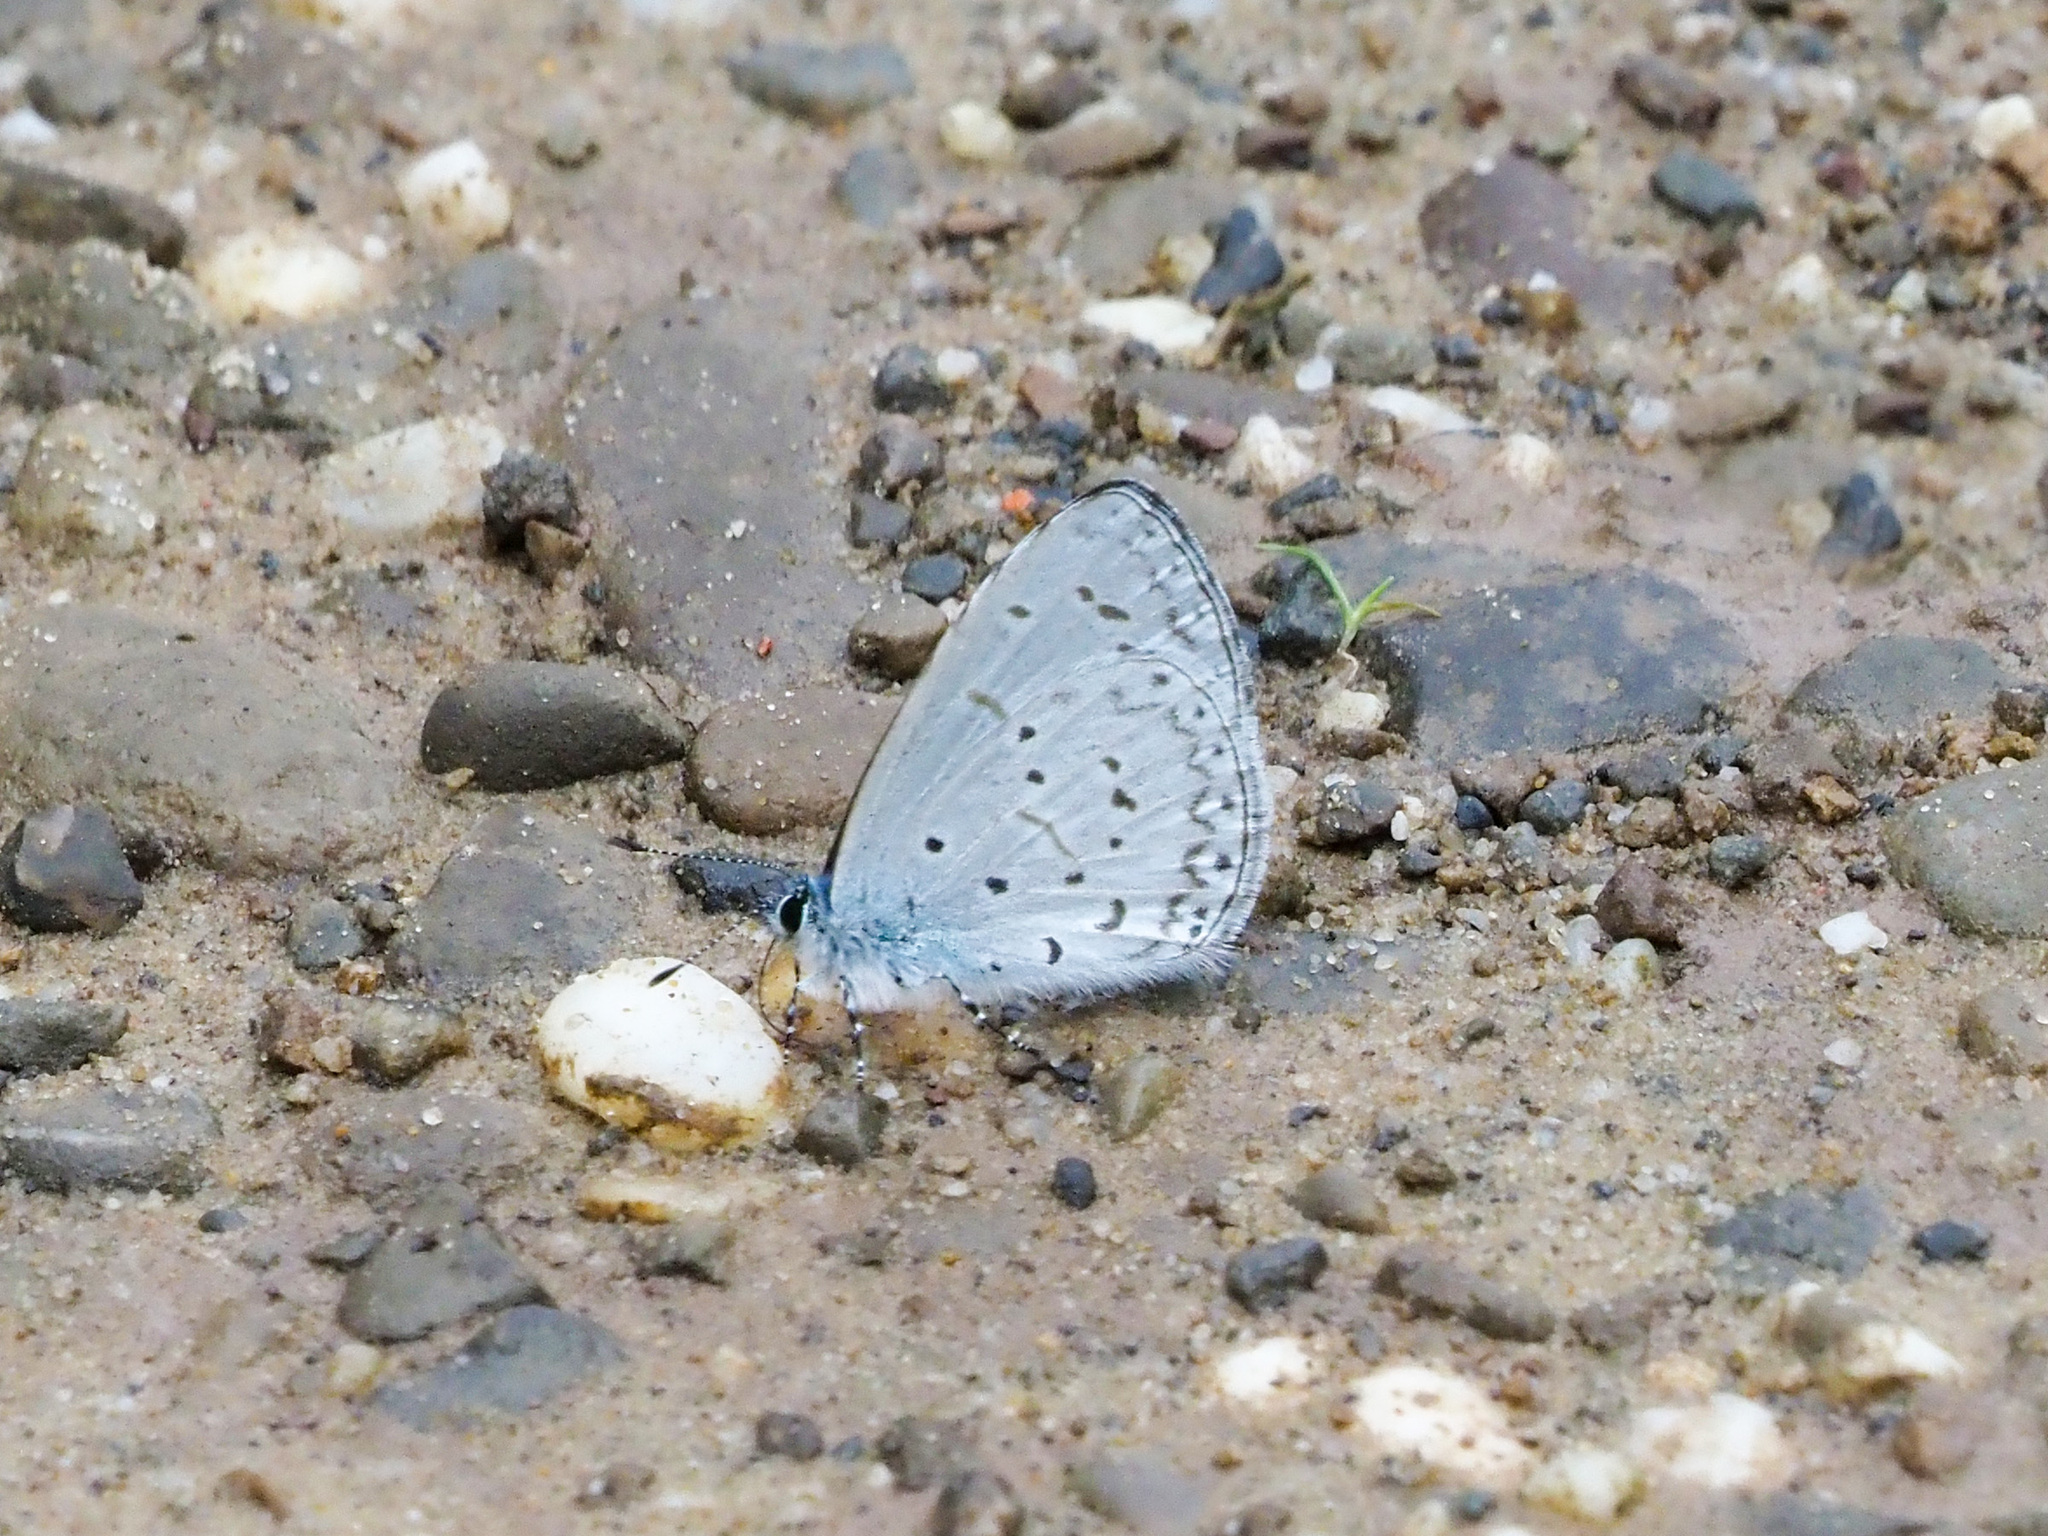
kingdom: Animalia
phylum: Arthropoda
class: Insecta
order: Lepidoptera
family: Lycaenidae
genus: Udara
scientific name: Udara dilectus
